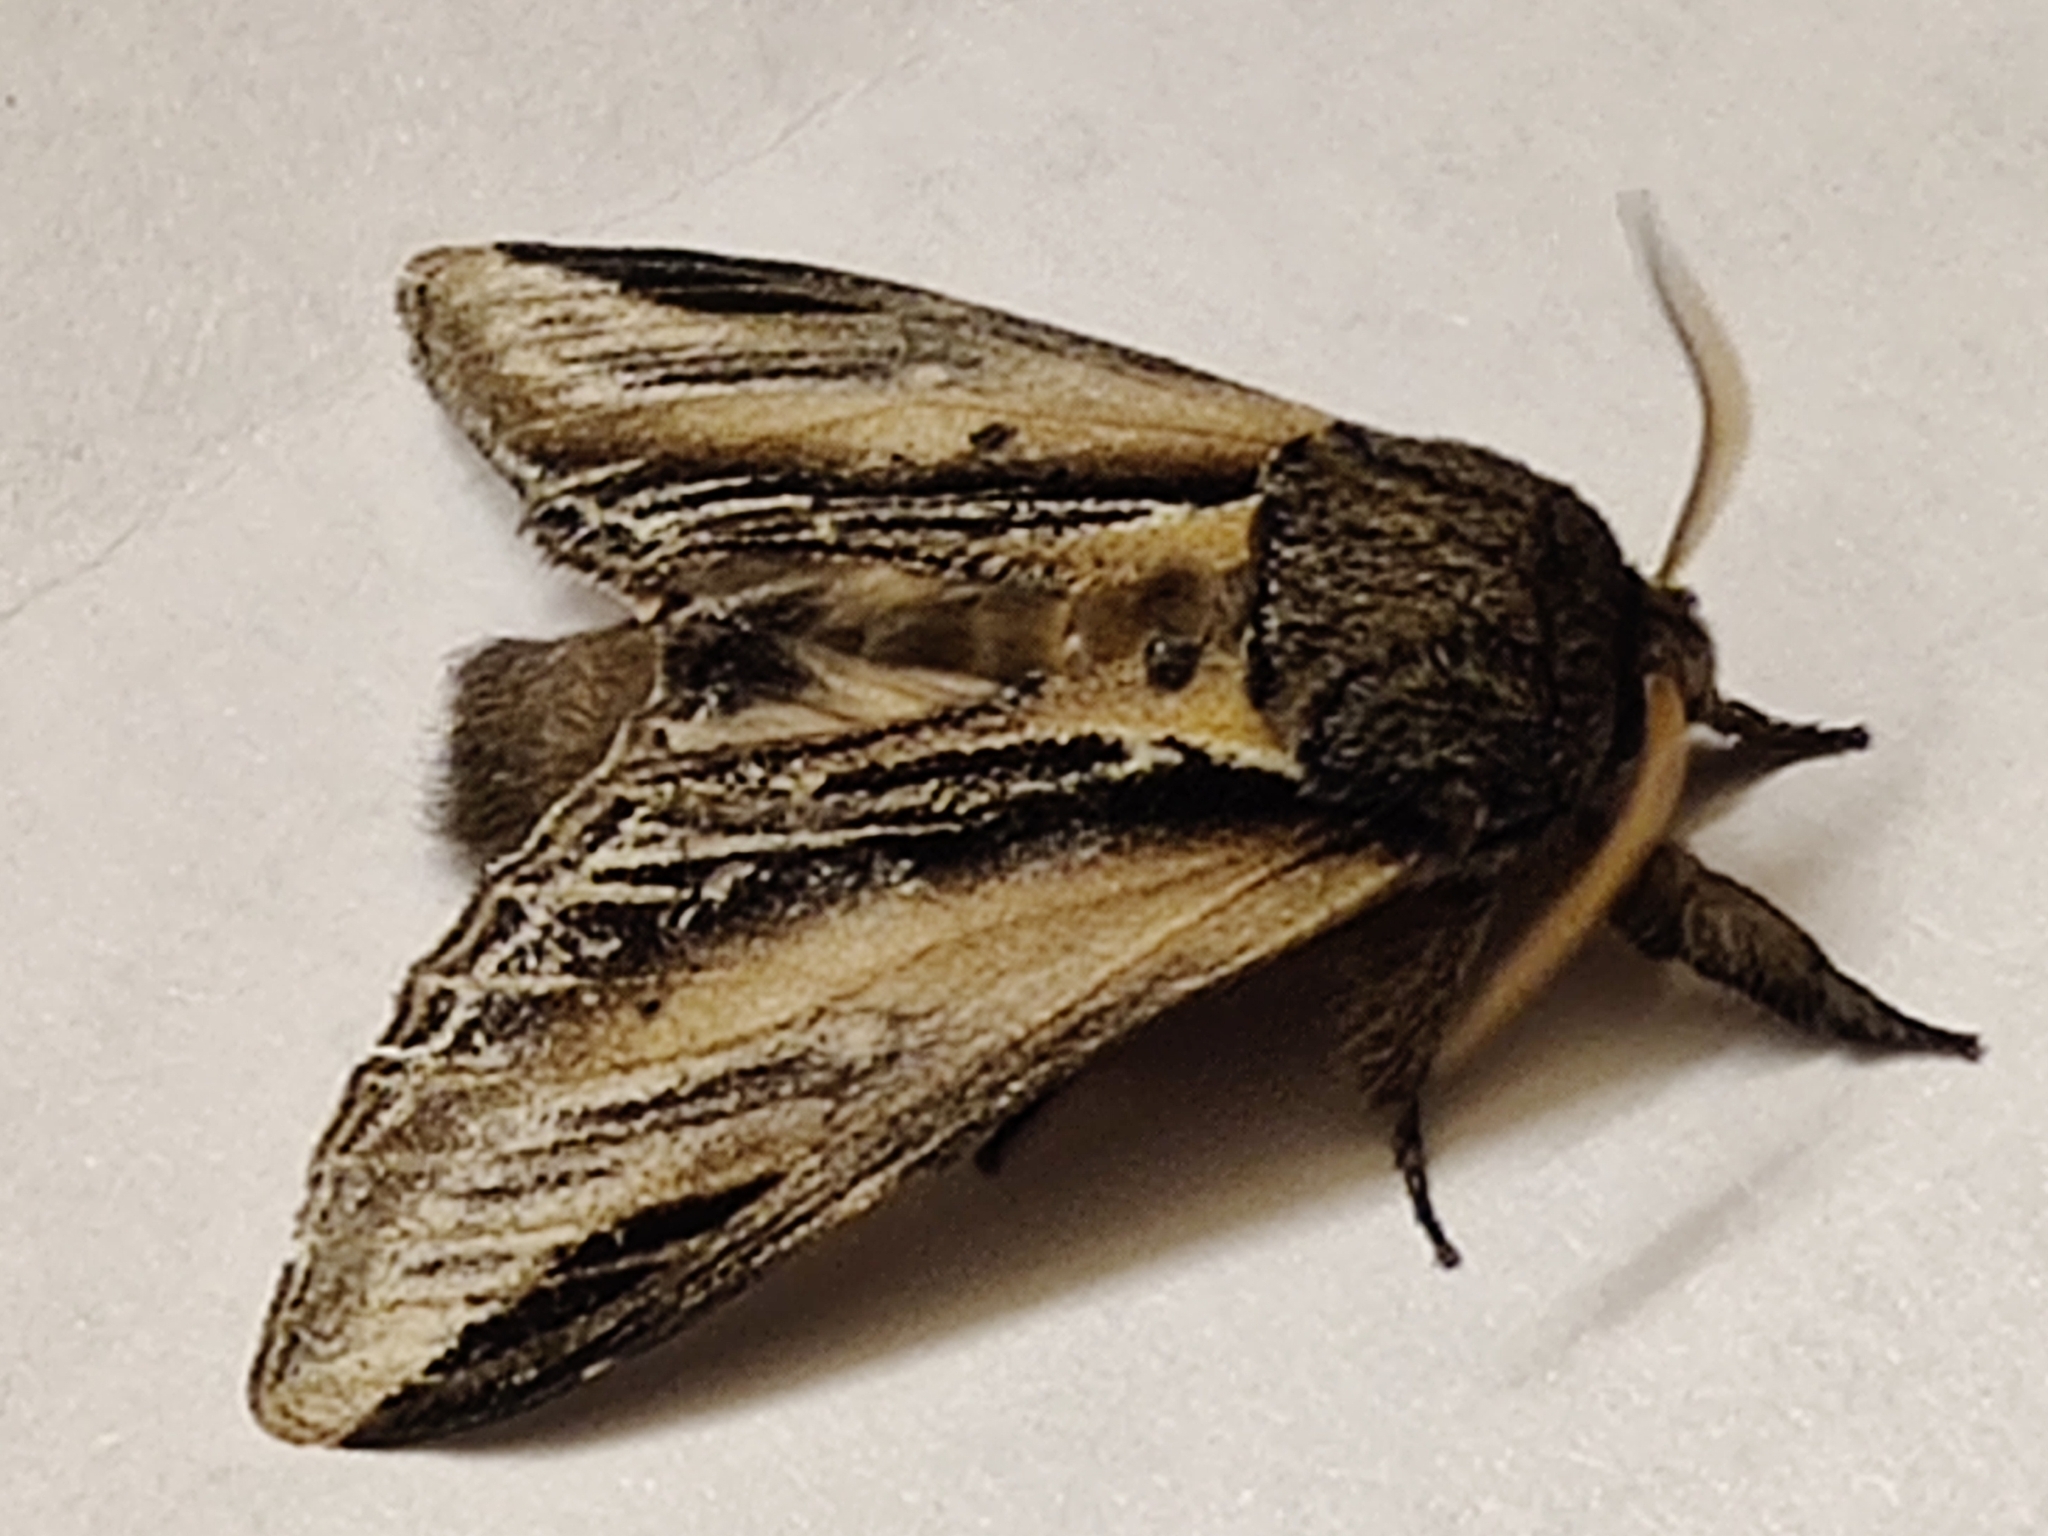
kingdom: Animalia
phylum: Arthropoda
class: Insecta
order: Lepidoptera
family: Notodontidae
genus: Pheosia
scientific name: Pheosia tremula
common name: Swallow prominent
